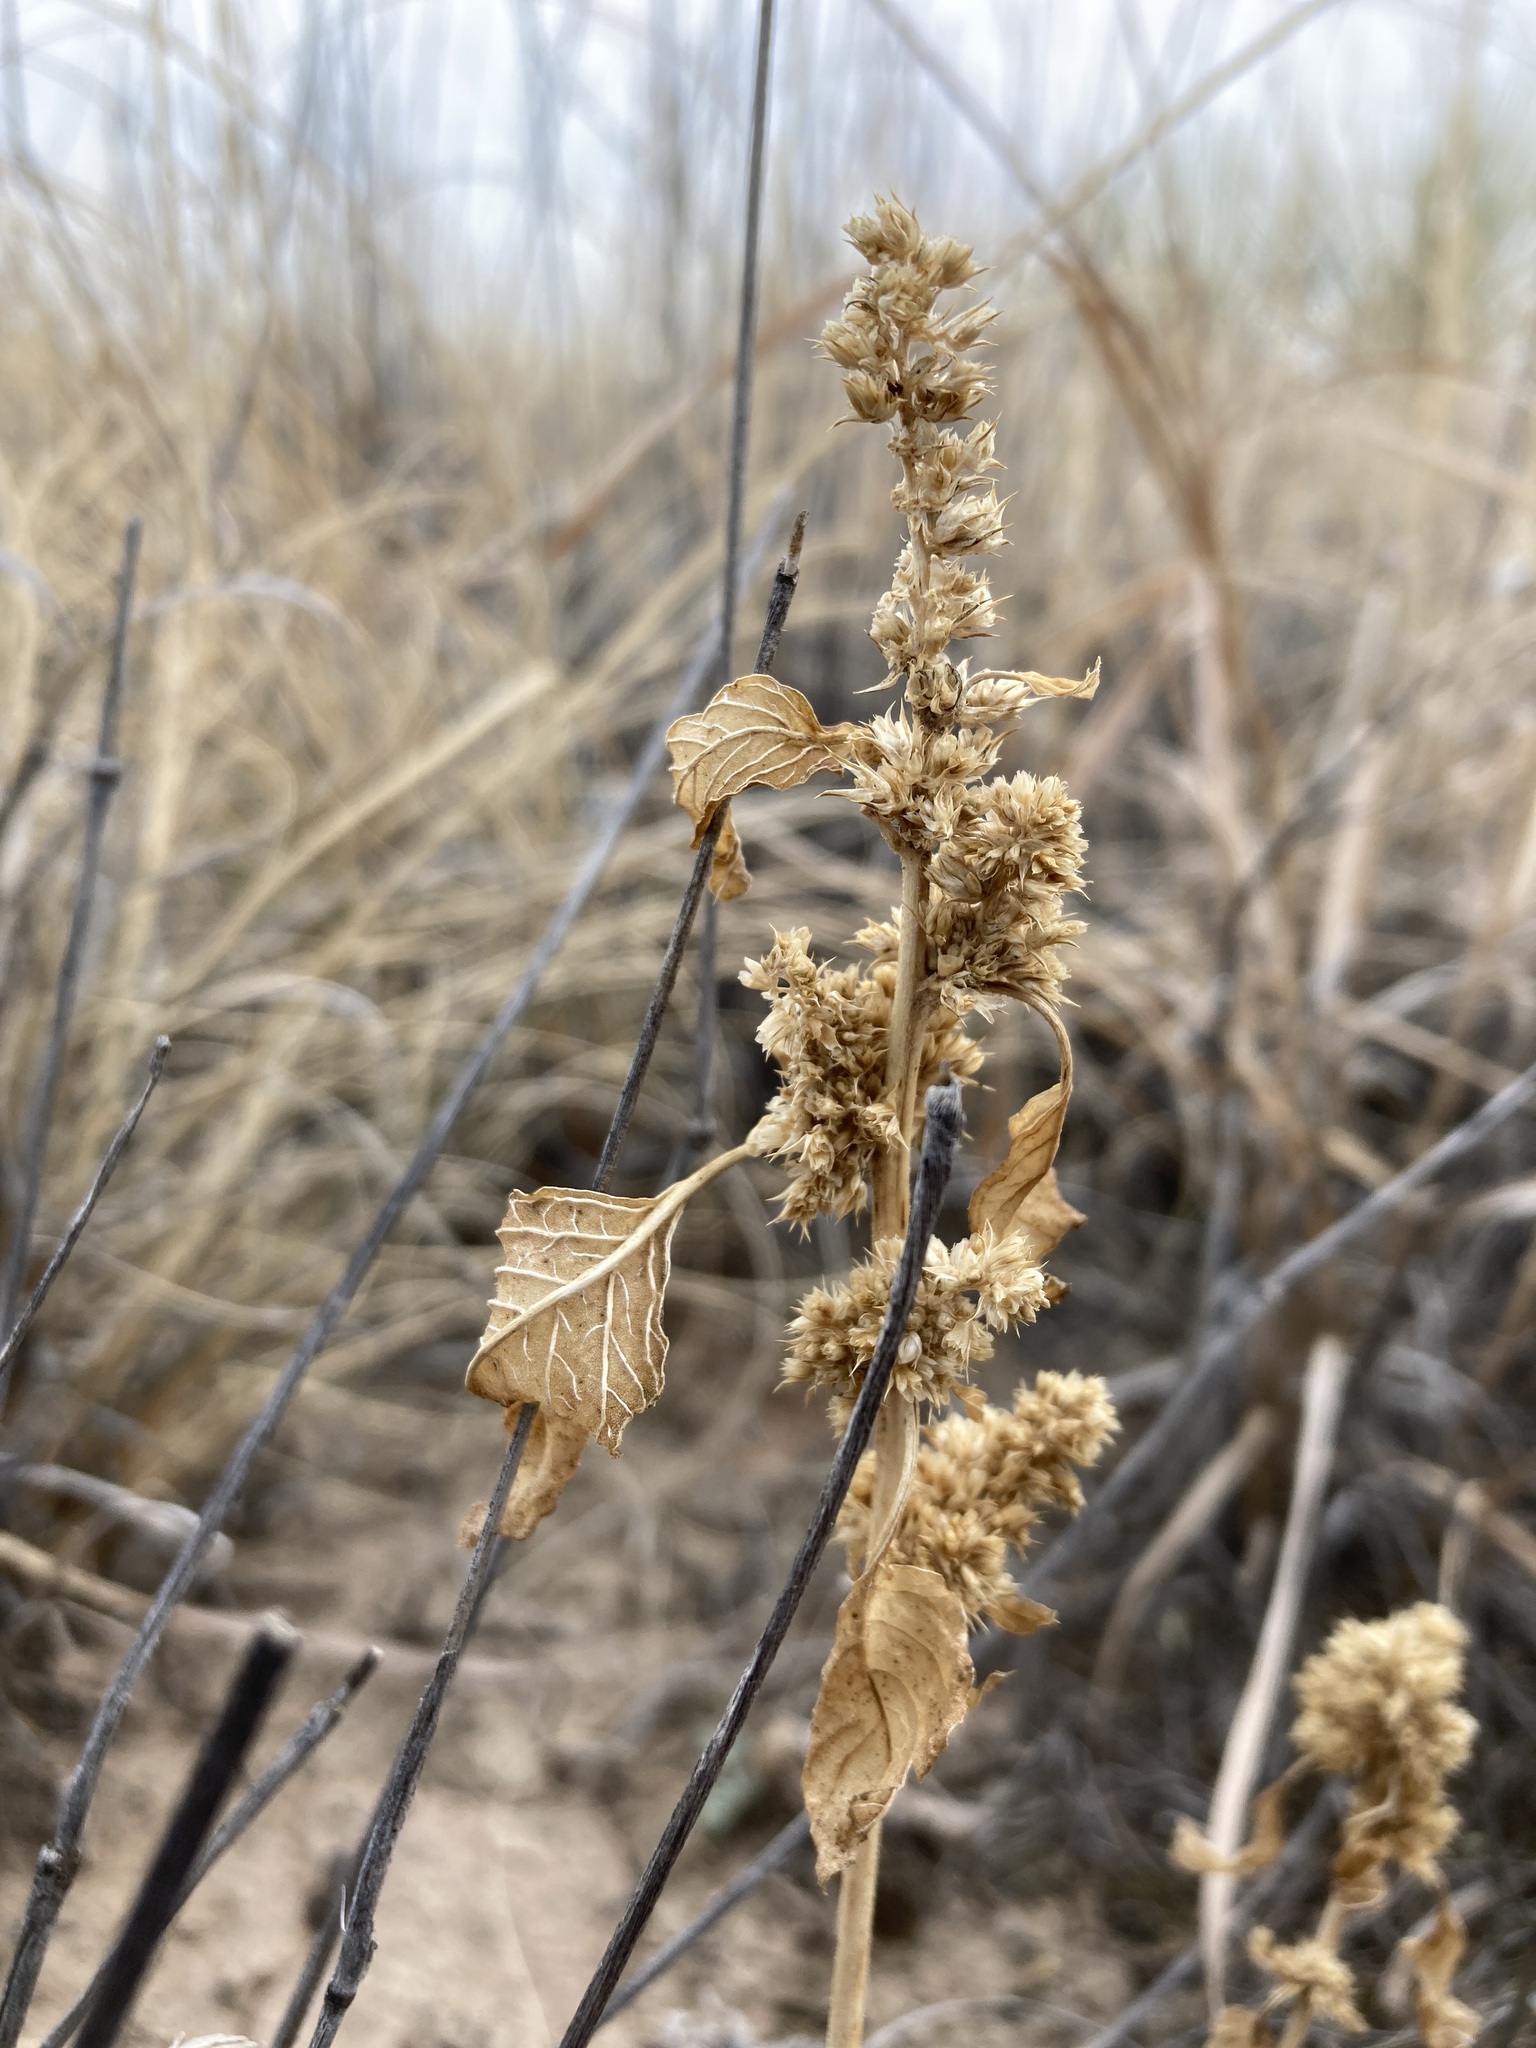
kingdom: Plantae
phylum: Tracheophyta
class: Magnoliopsida
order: Caryophyllales
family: Amaranthaceae
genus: Amaranthus
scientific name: Amaranthus palmeri
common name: Dioecious amaranth
